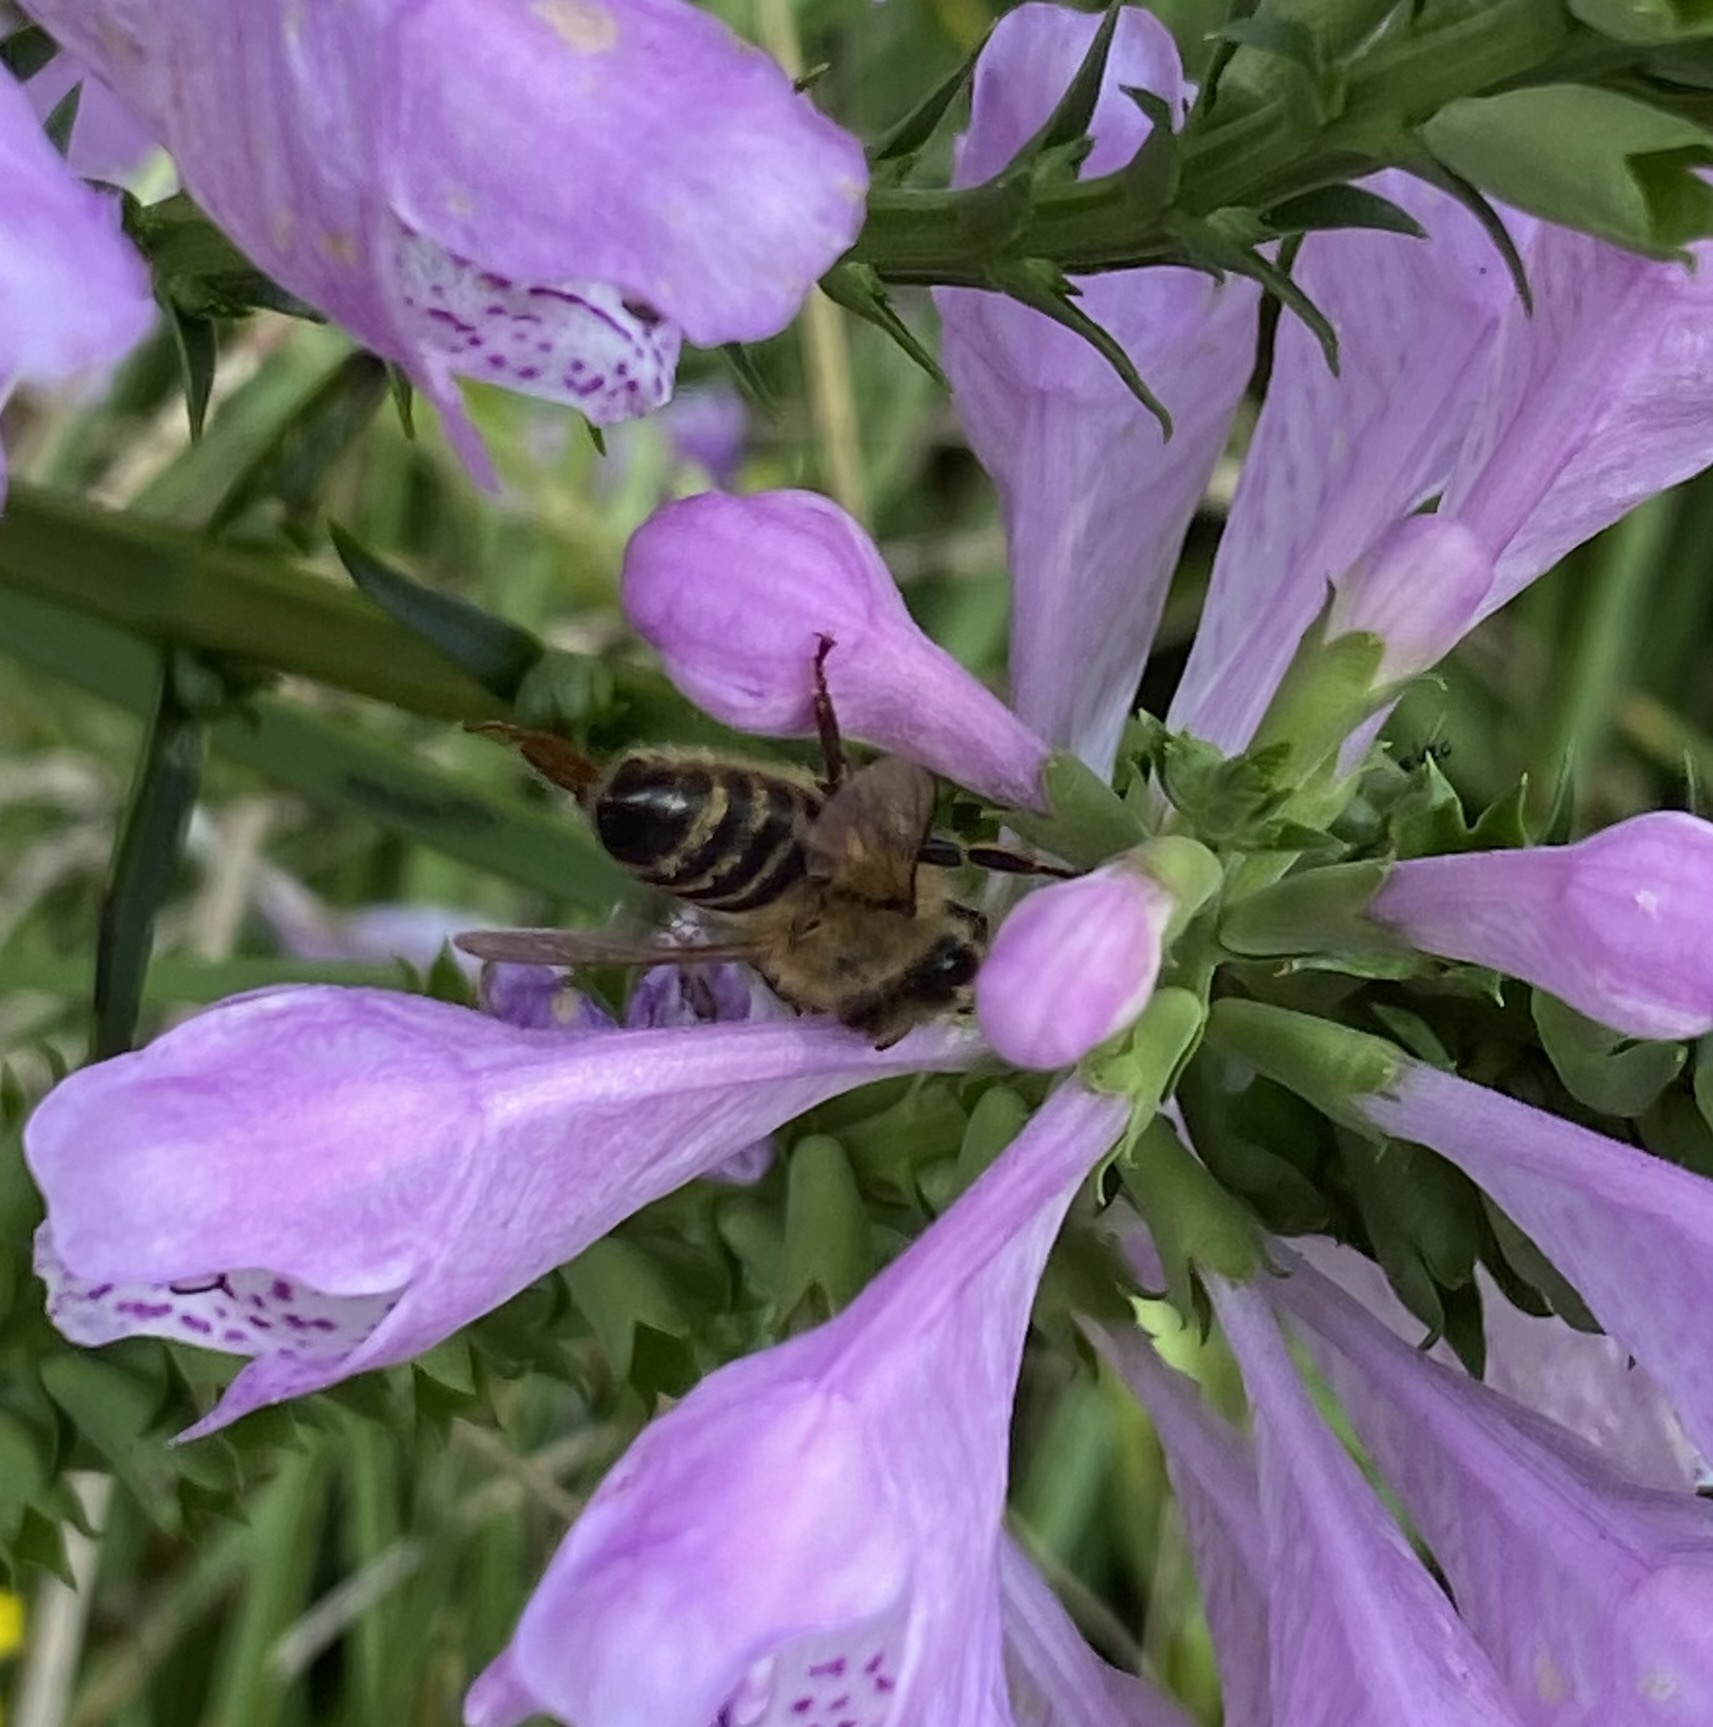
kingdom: Animalia
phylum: Arthropoda
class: Insecta
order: Hymenoptera
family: Apidae
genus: Apis
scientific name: Apis mellifera
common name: Honey bee
